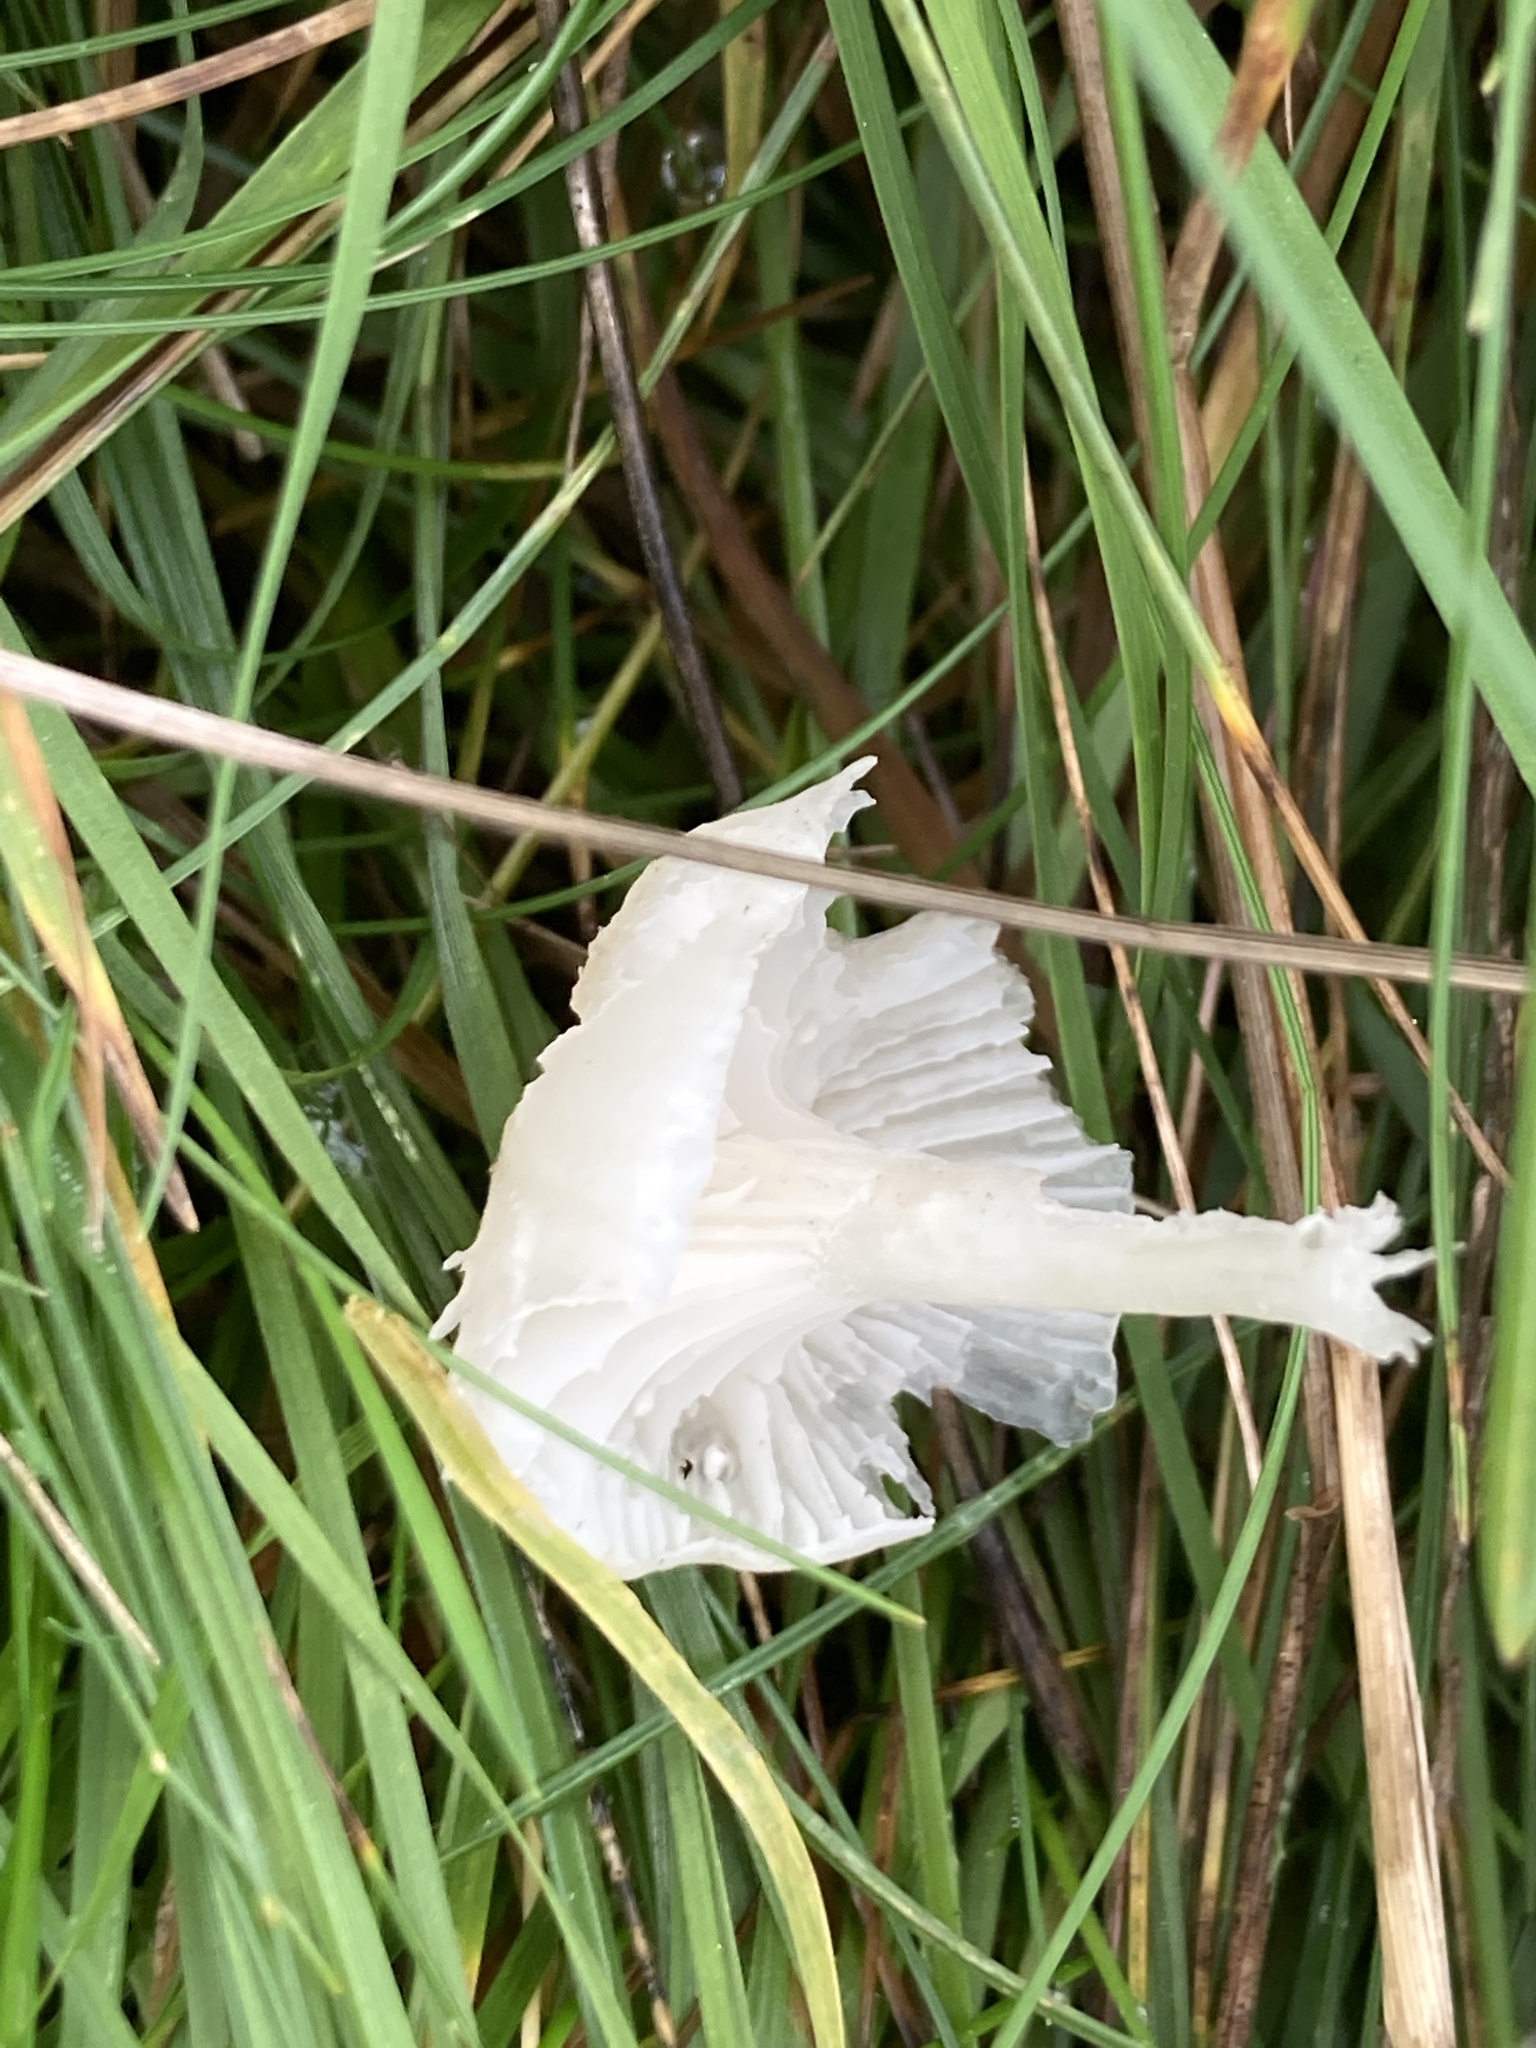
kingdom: Fungi
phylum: Basidiomycota
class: Agaricomycetes
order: Agaricales
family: Hygrophoraceae
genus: Cuphophyllus
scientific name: Cuphophyllus virgineus
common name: Snowy waxcap
